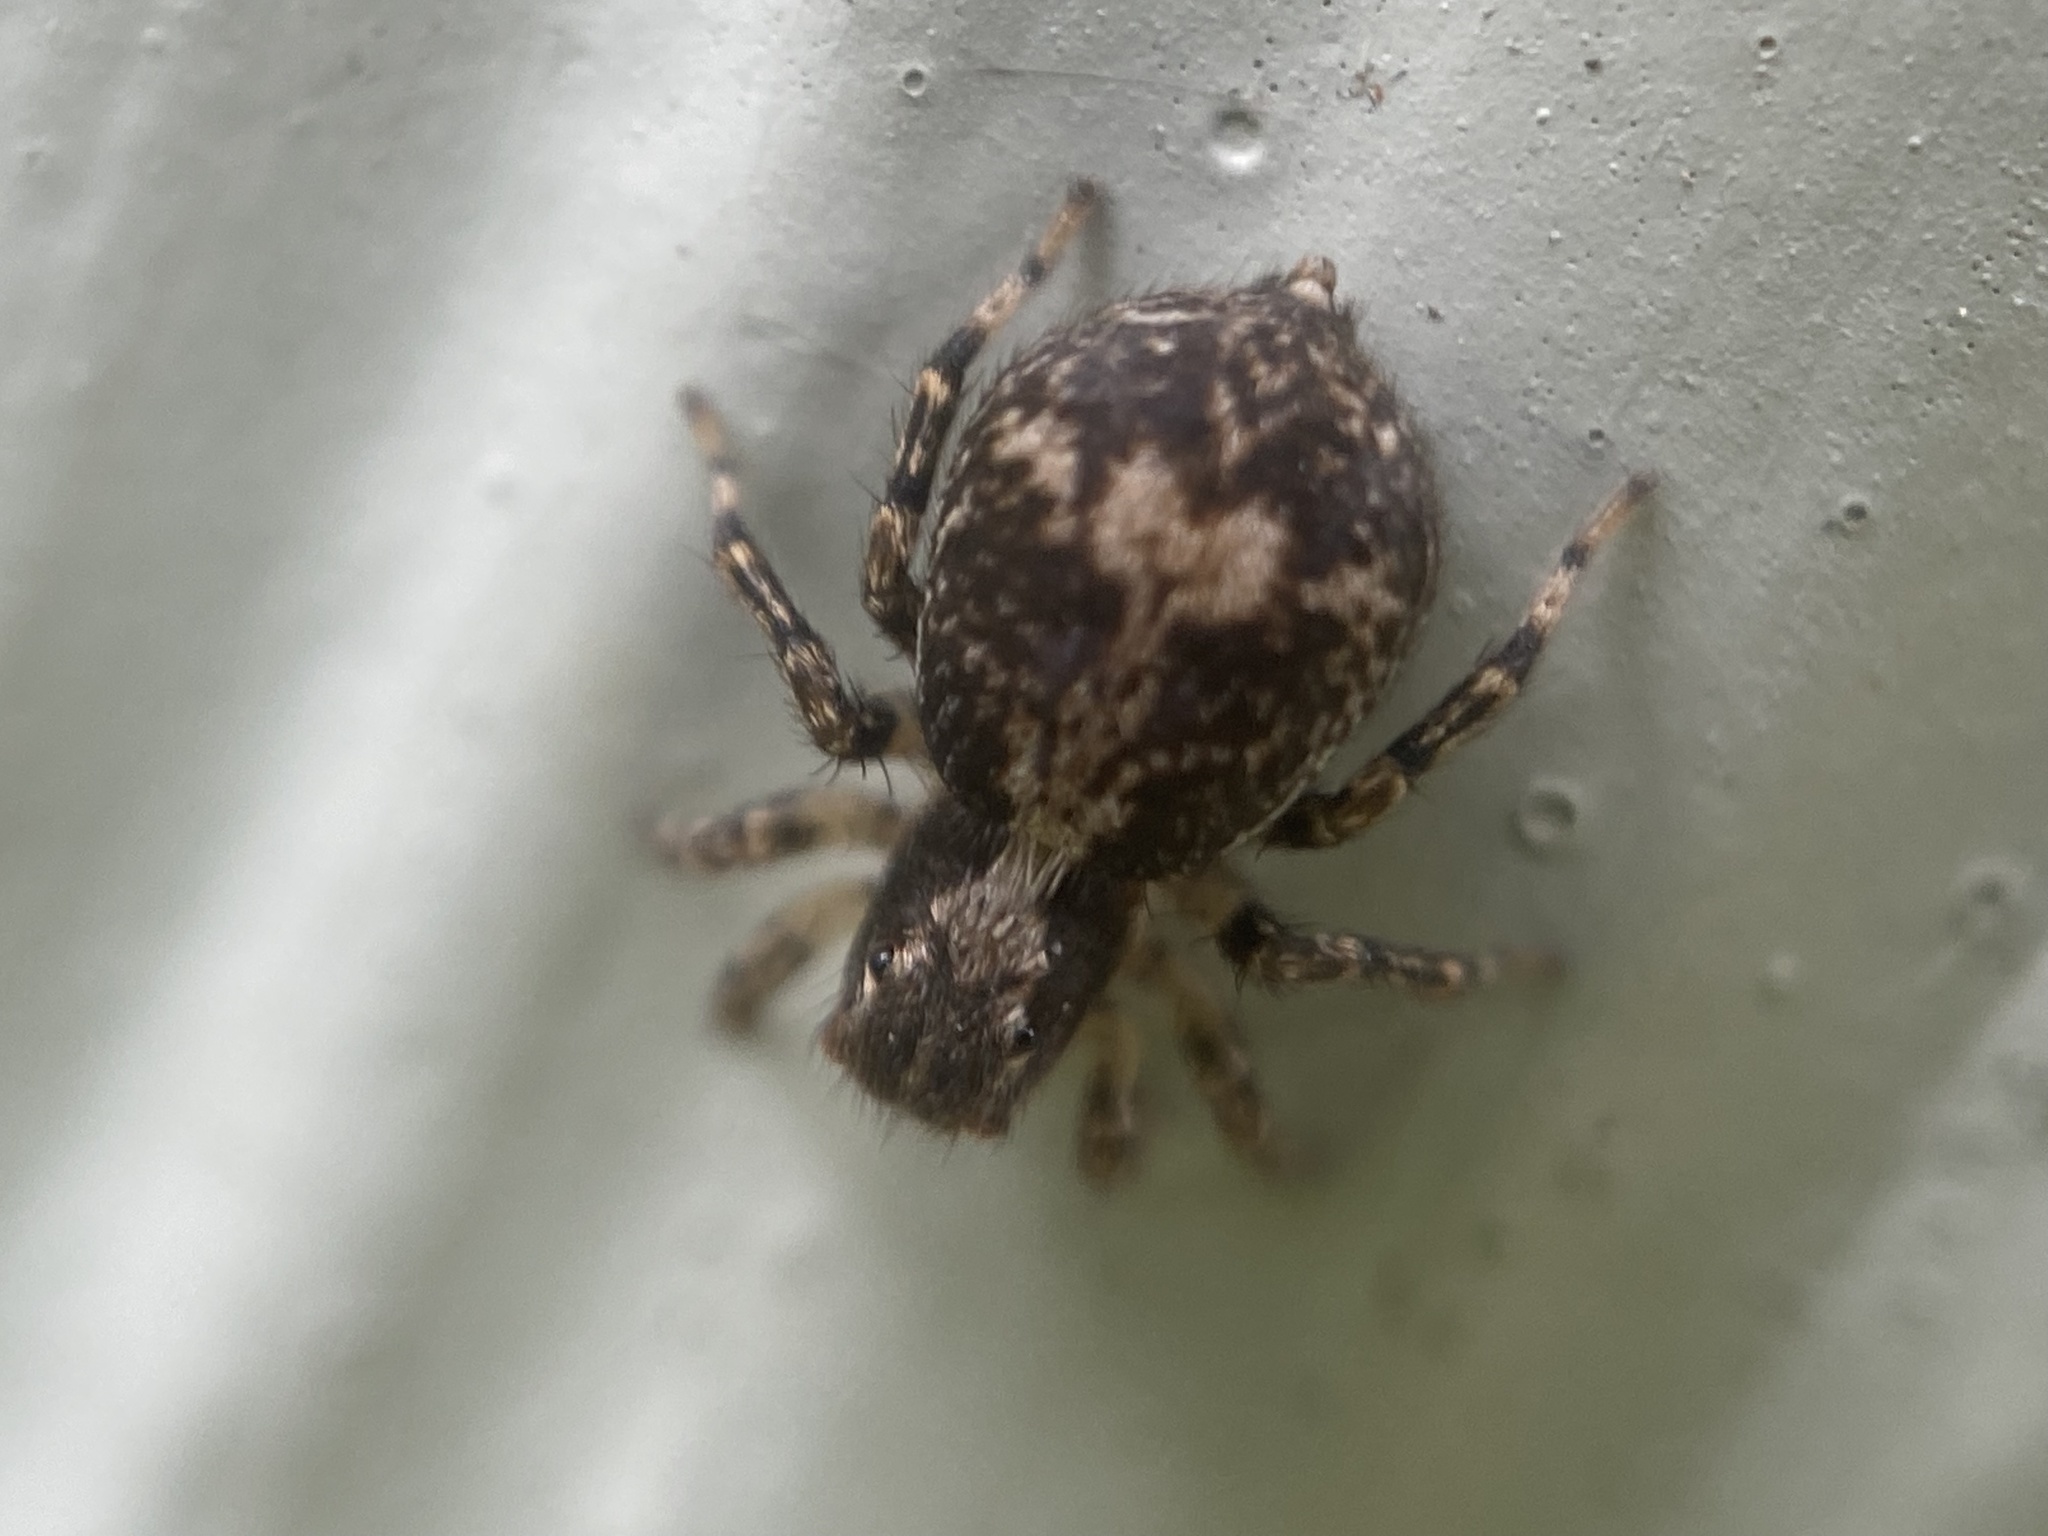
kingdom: Animalia
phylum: Arthropoda
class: Arachnida
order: Araneae
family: Salticidae
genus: Naphrys
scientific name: Naphrys pulex
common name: Flea jumping spider
